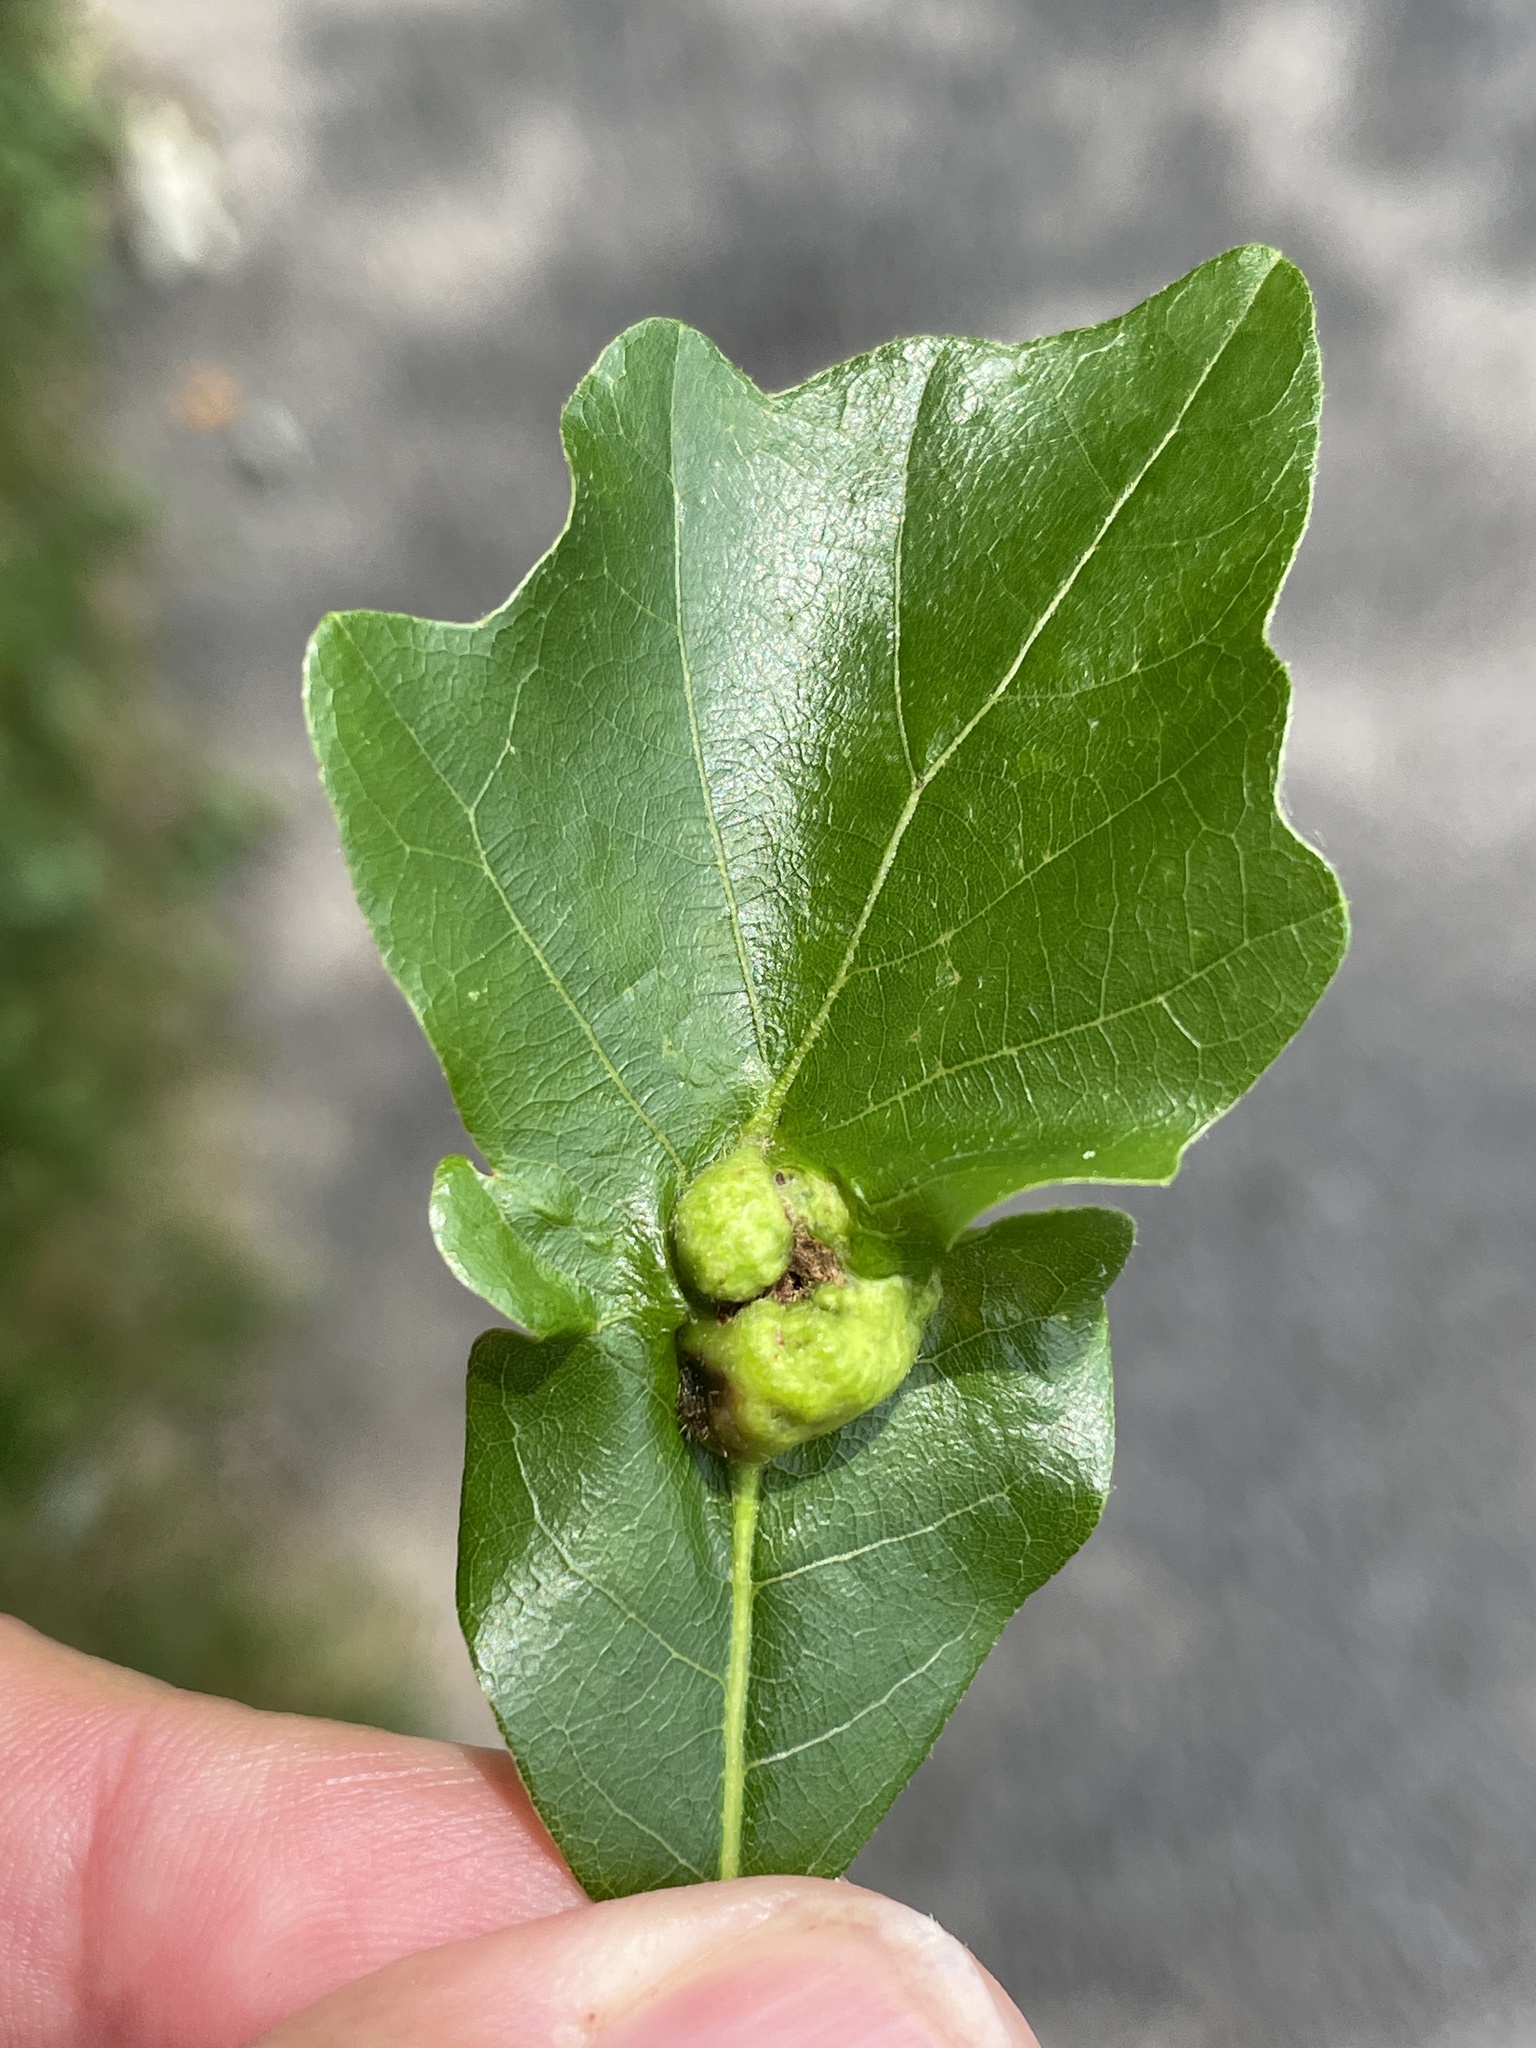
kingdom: Animalia
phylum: Arthropoda
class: Insecta
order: Hymenoptera
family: Cynipidae
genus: Andricus
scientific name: Andricus
